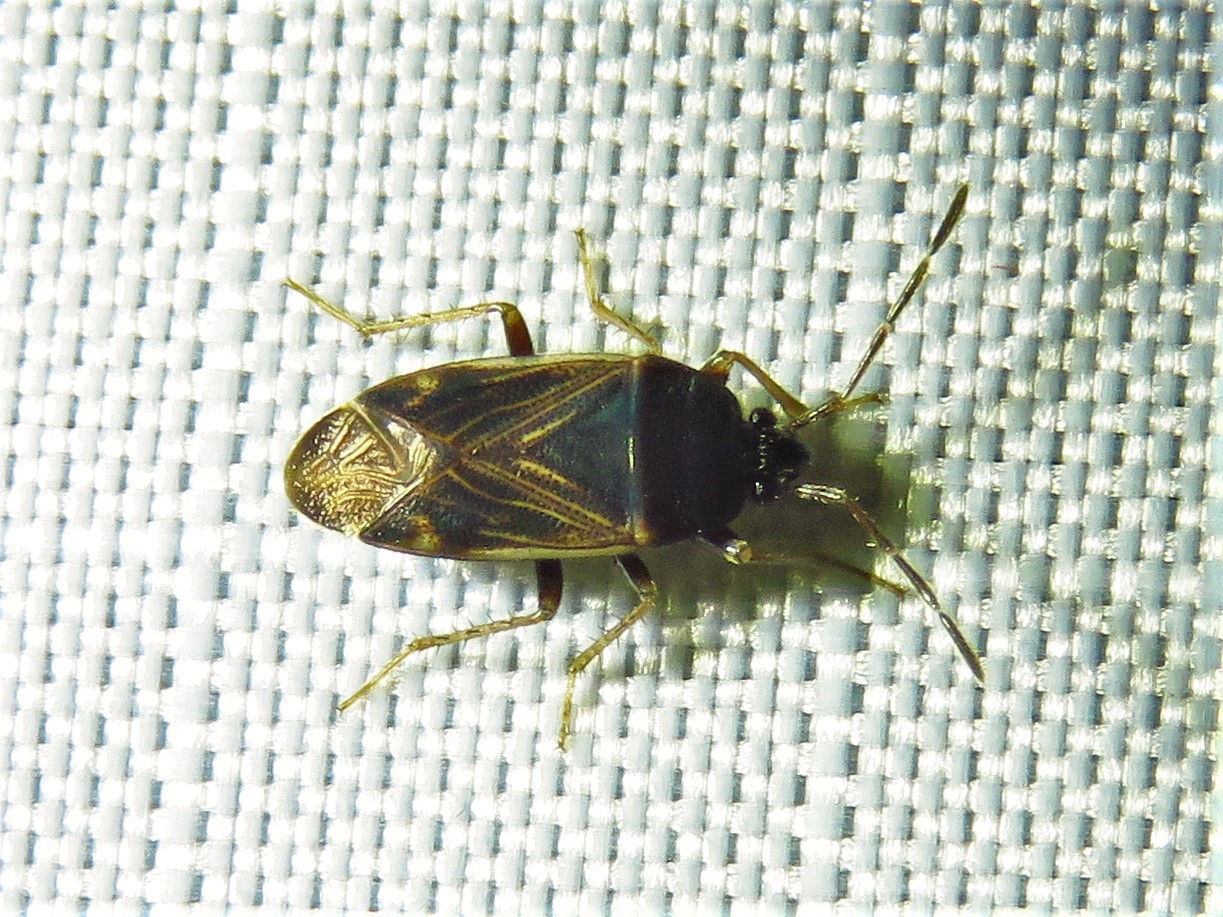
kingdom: Animalia
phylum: Arthropoda
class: Insecta
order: Hemiptera
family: Rhyparochromidae
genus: Paragonatas
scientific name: Paragonatas divergens
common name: Seed bug
